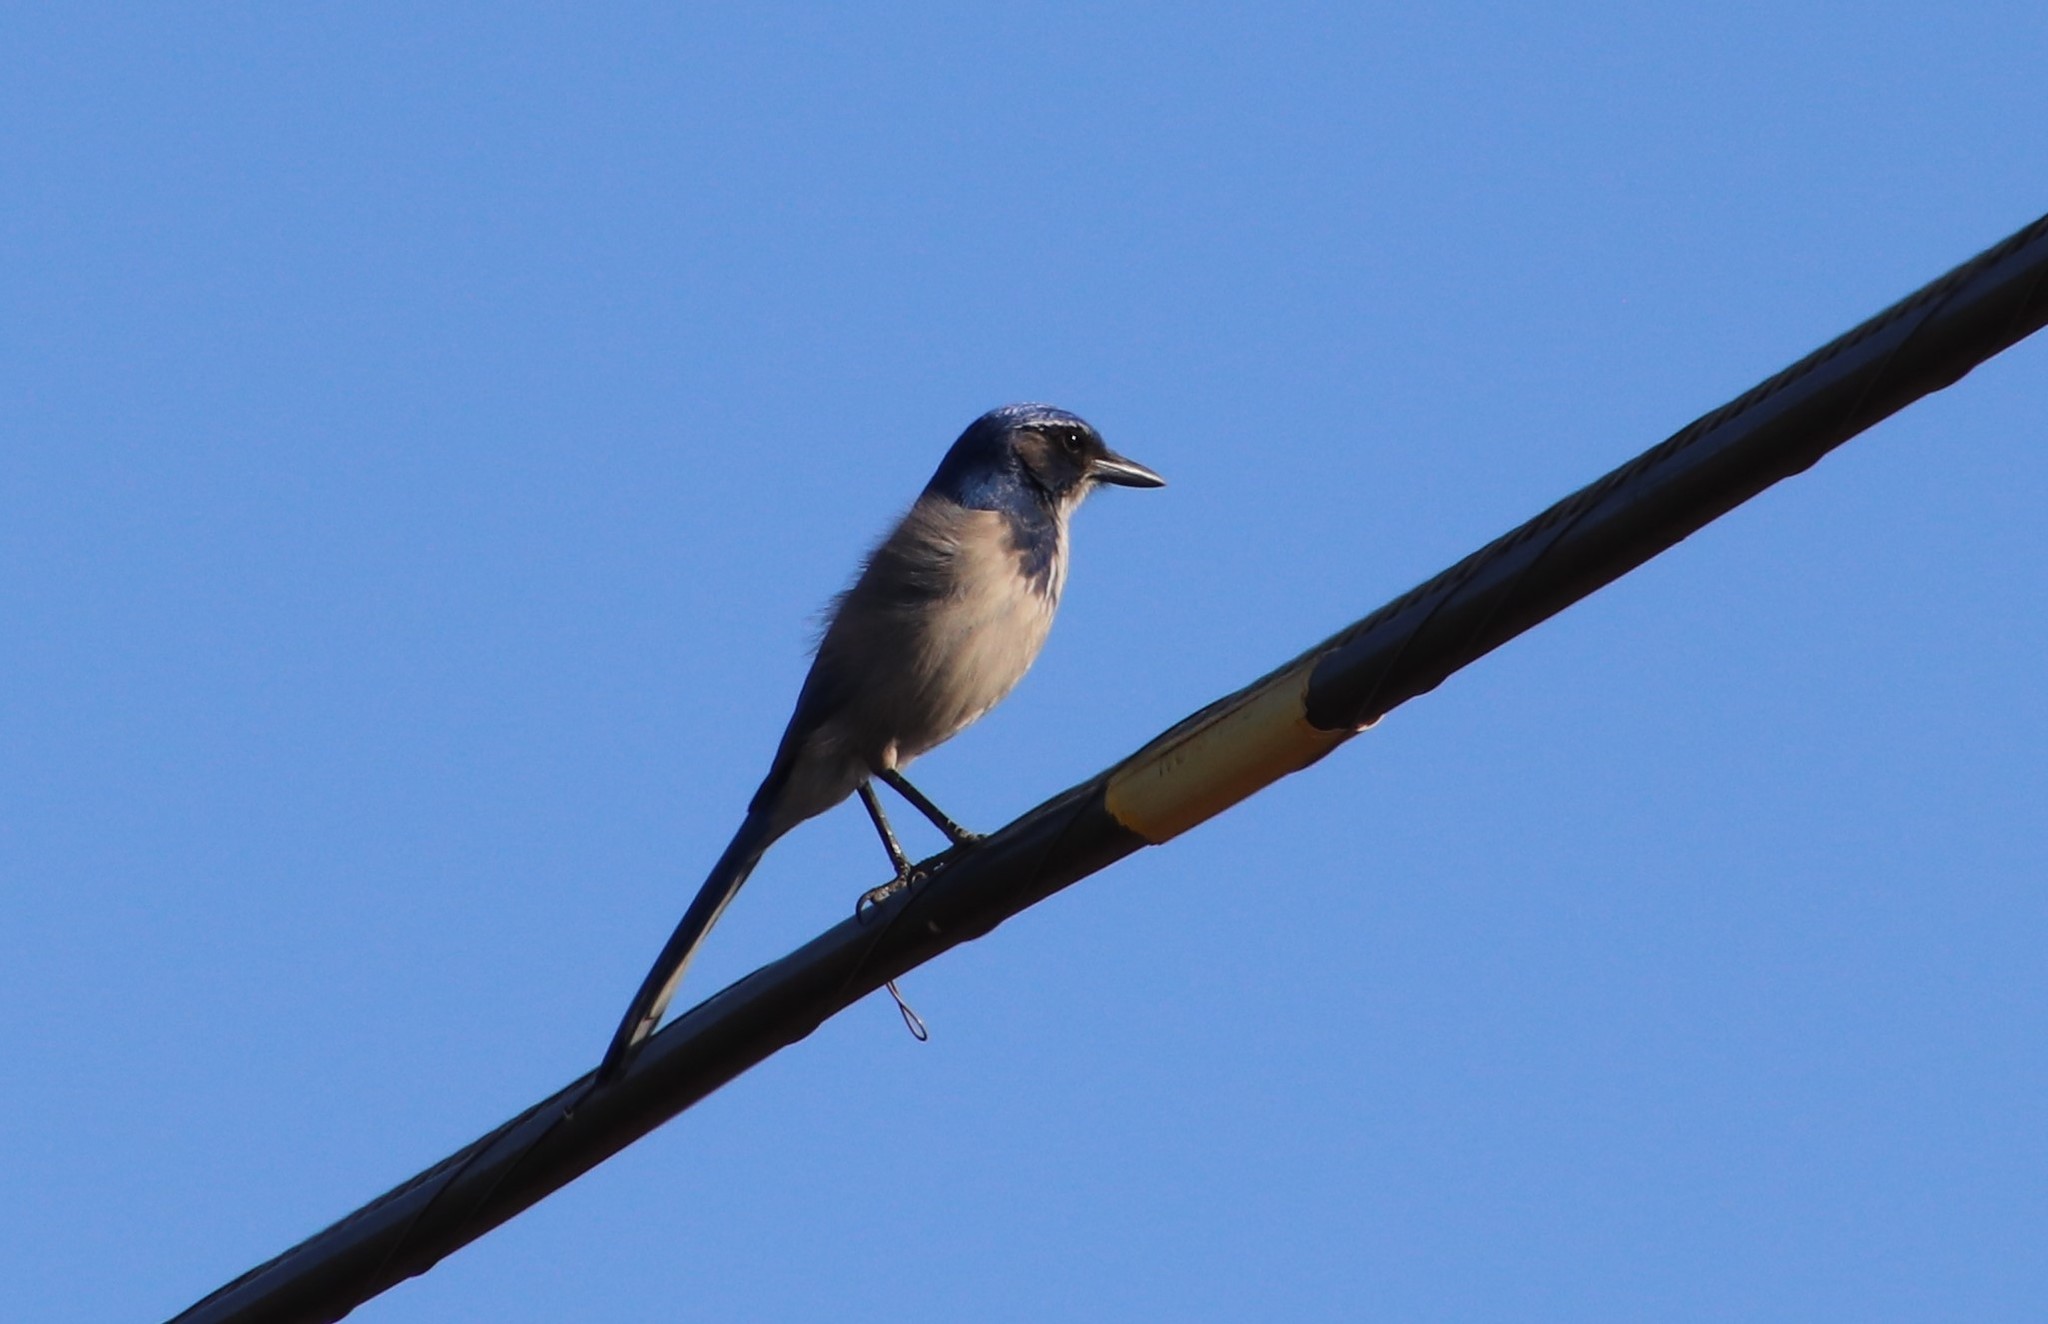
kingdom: Animalia
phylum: Chordata
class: Aves
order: Passeriformes
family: Corvidae
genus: Aphelocoma
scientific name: Aphelocoma californica
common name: California scrub-jay
